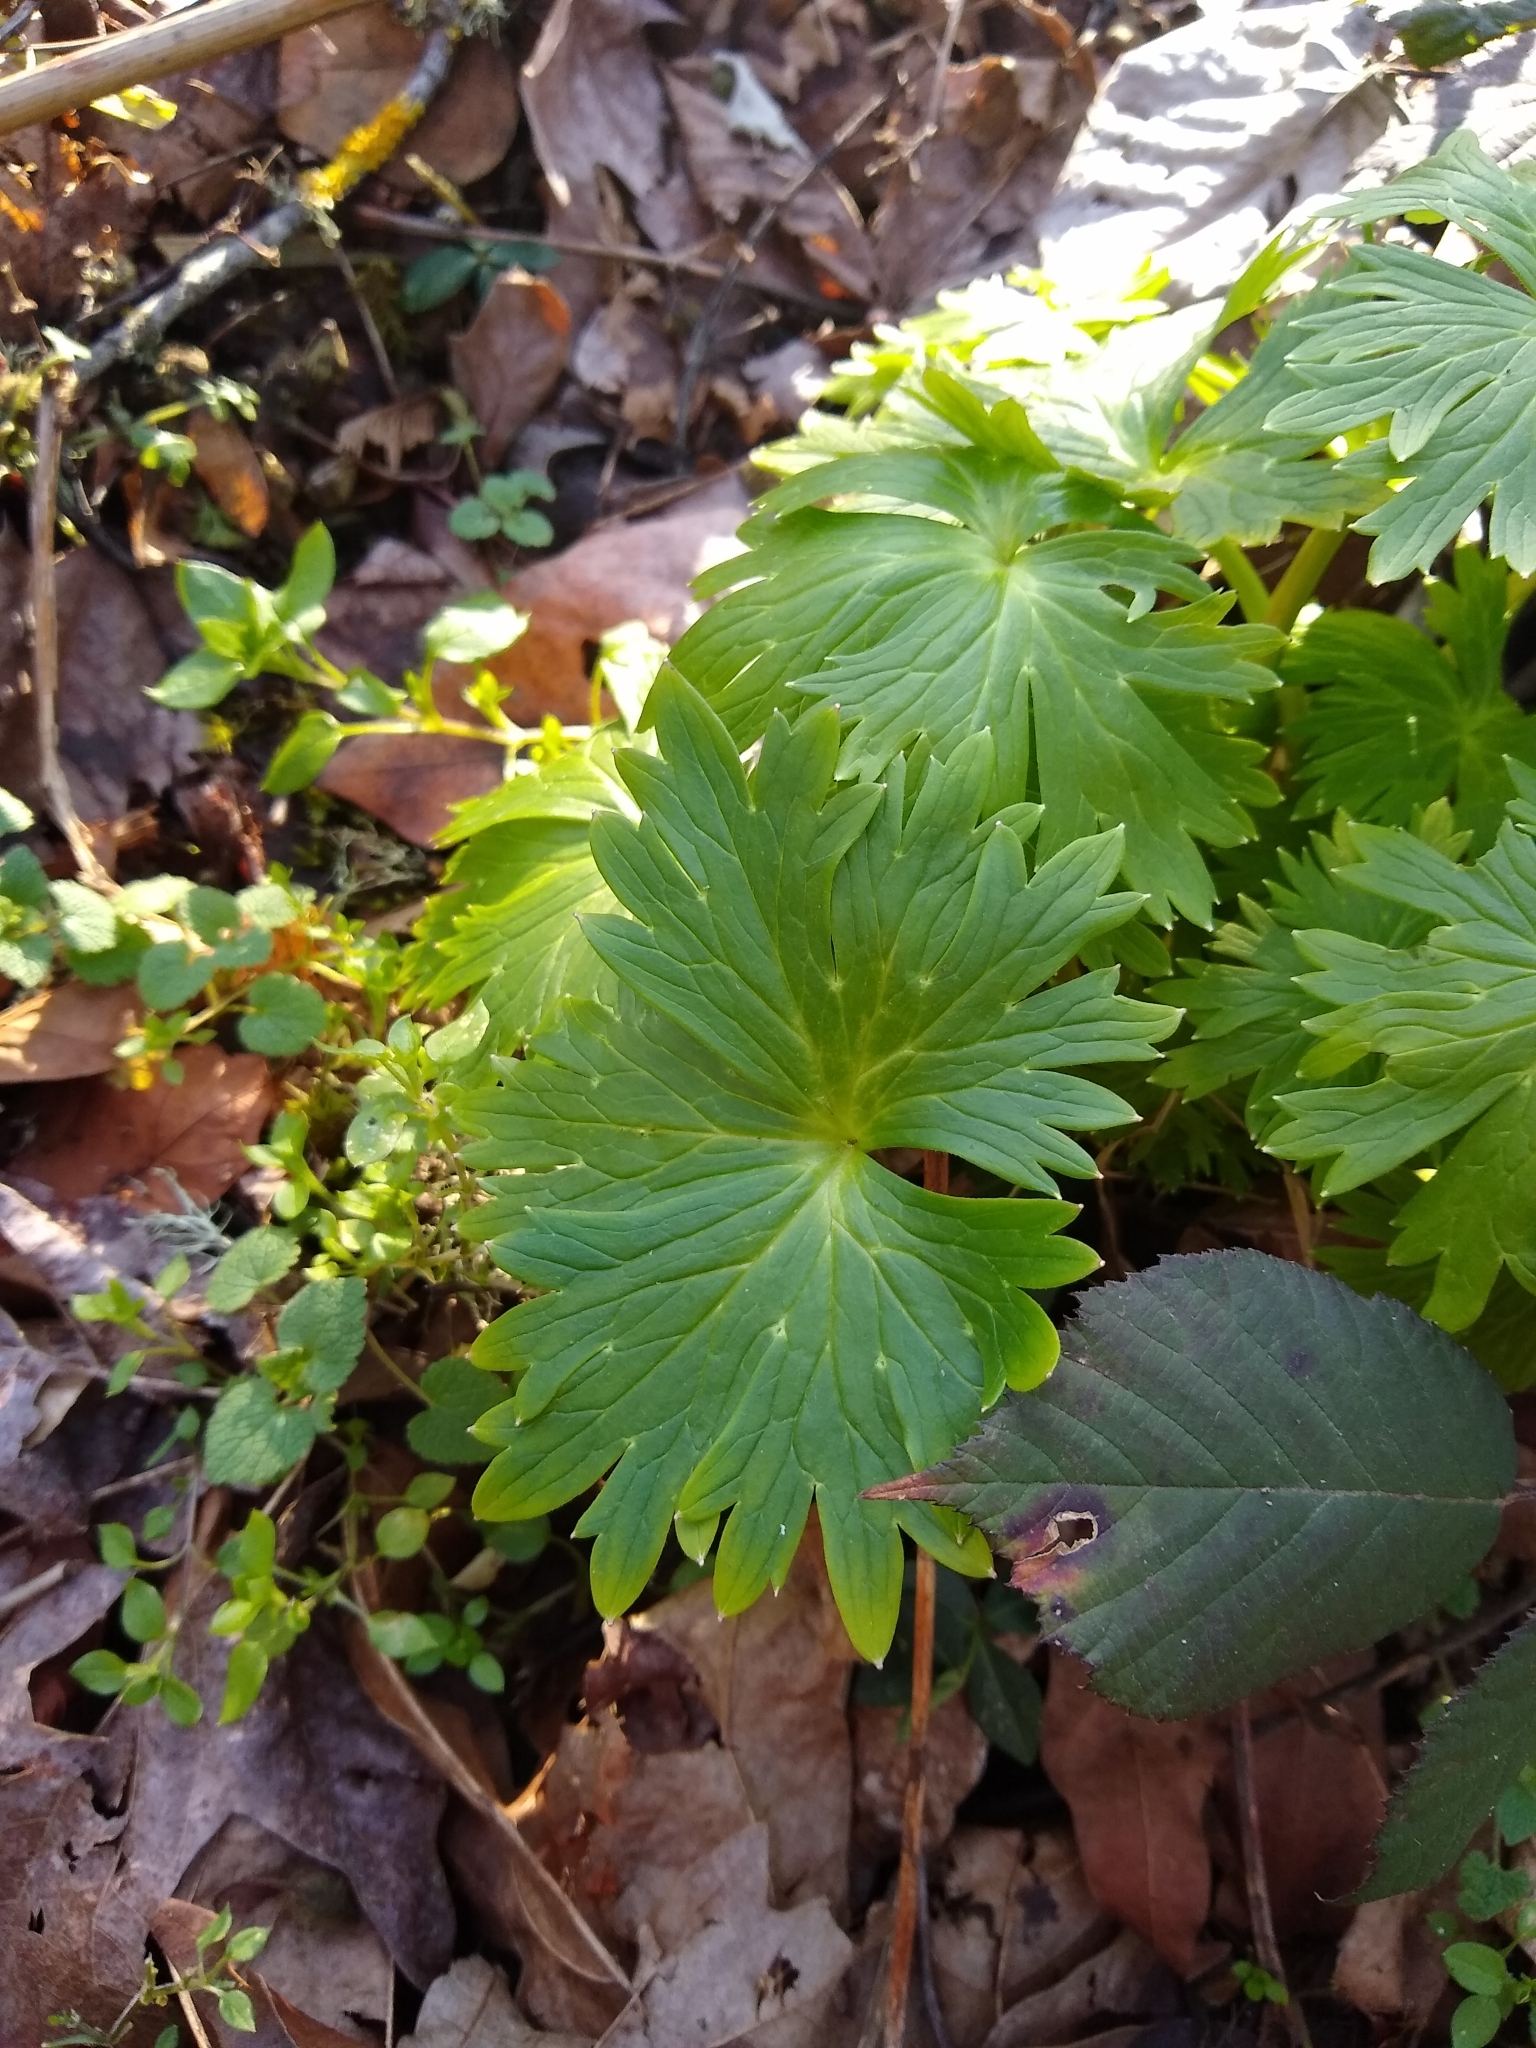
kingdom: Plantae
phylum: Tracheophyta
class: Magnoliopsida
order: Ranunculales
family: Ranunculaceae
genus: Delphinium
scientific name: Delphinium trolliifolium
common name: Cow-poison
